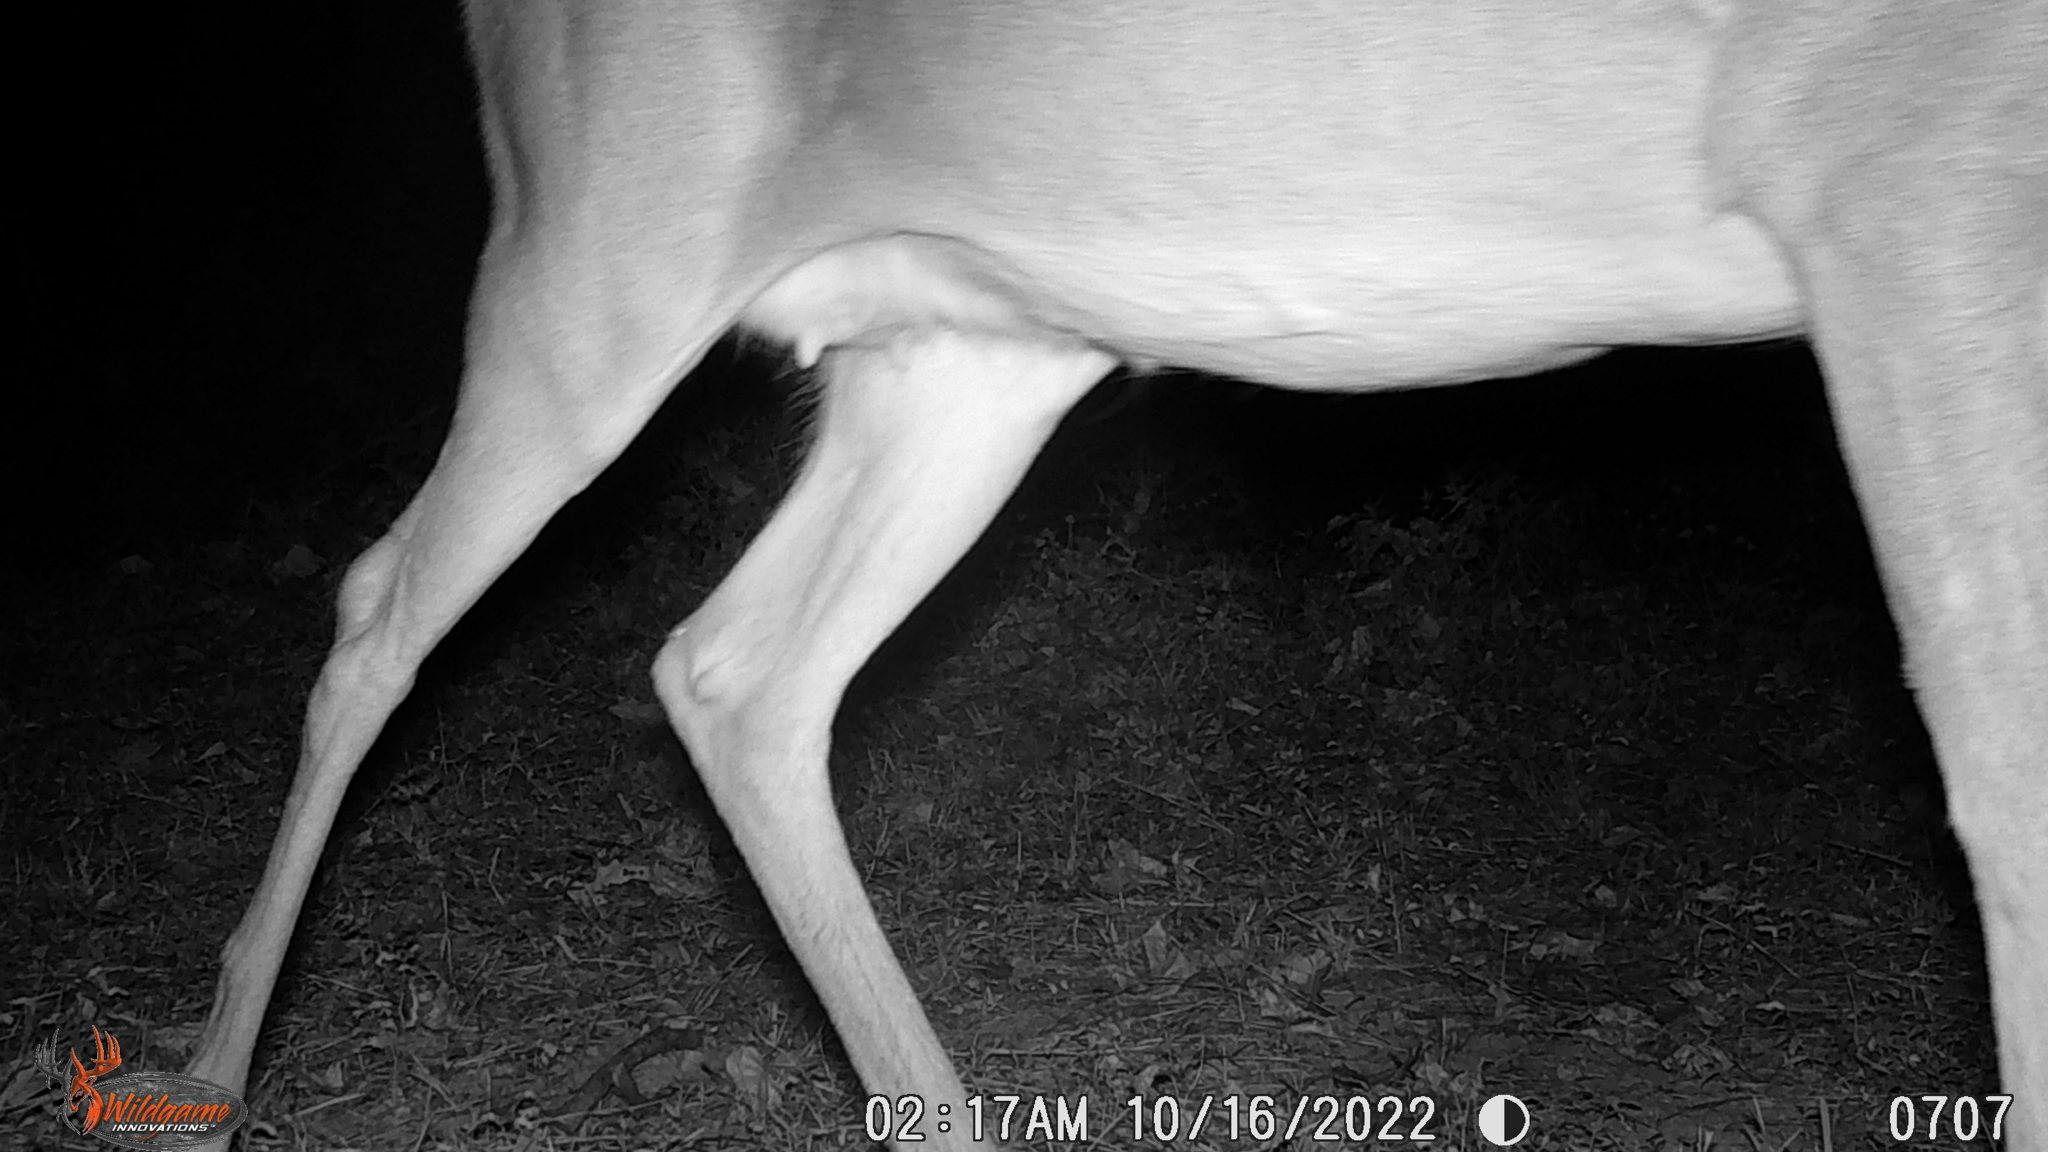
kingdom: Animalia
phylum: Chordata
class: Mammalia
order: Artiodactyla
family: Cervidae
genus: Odocoileus
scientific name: Odocoileus virginianus
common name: White-tailed deer
